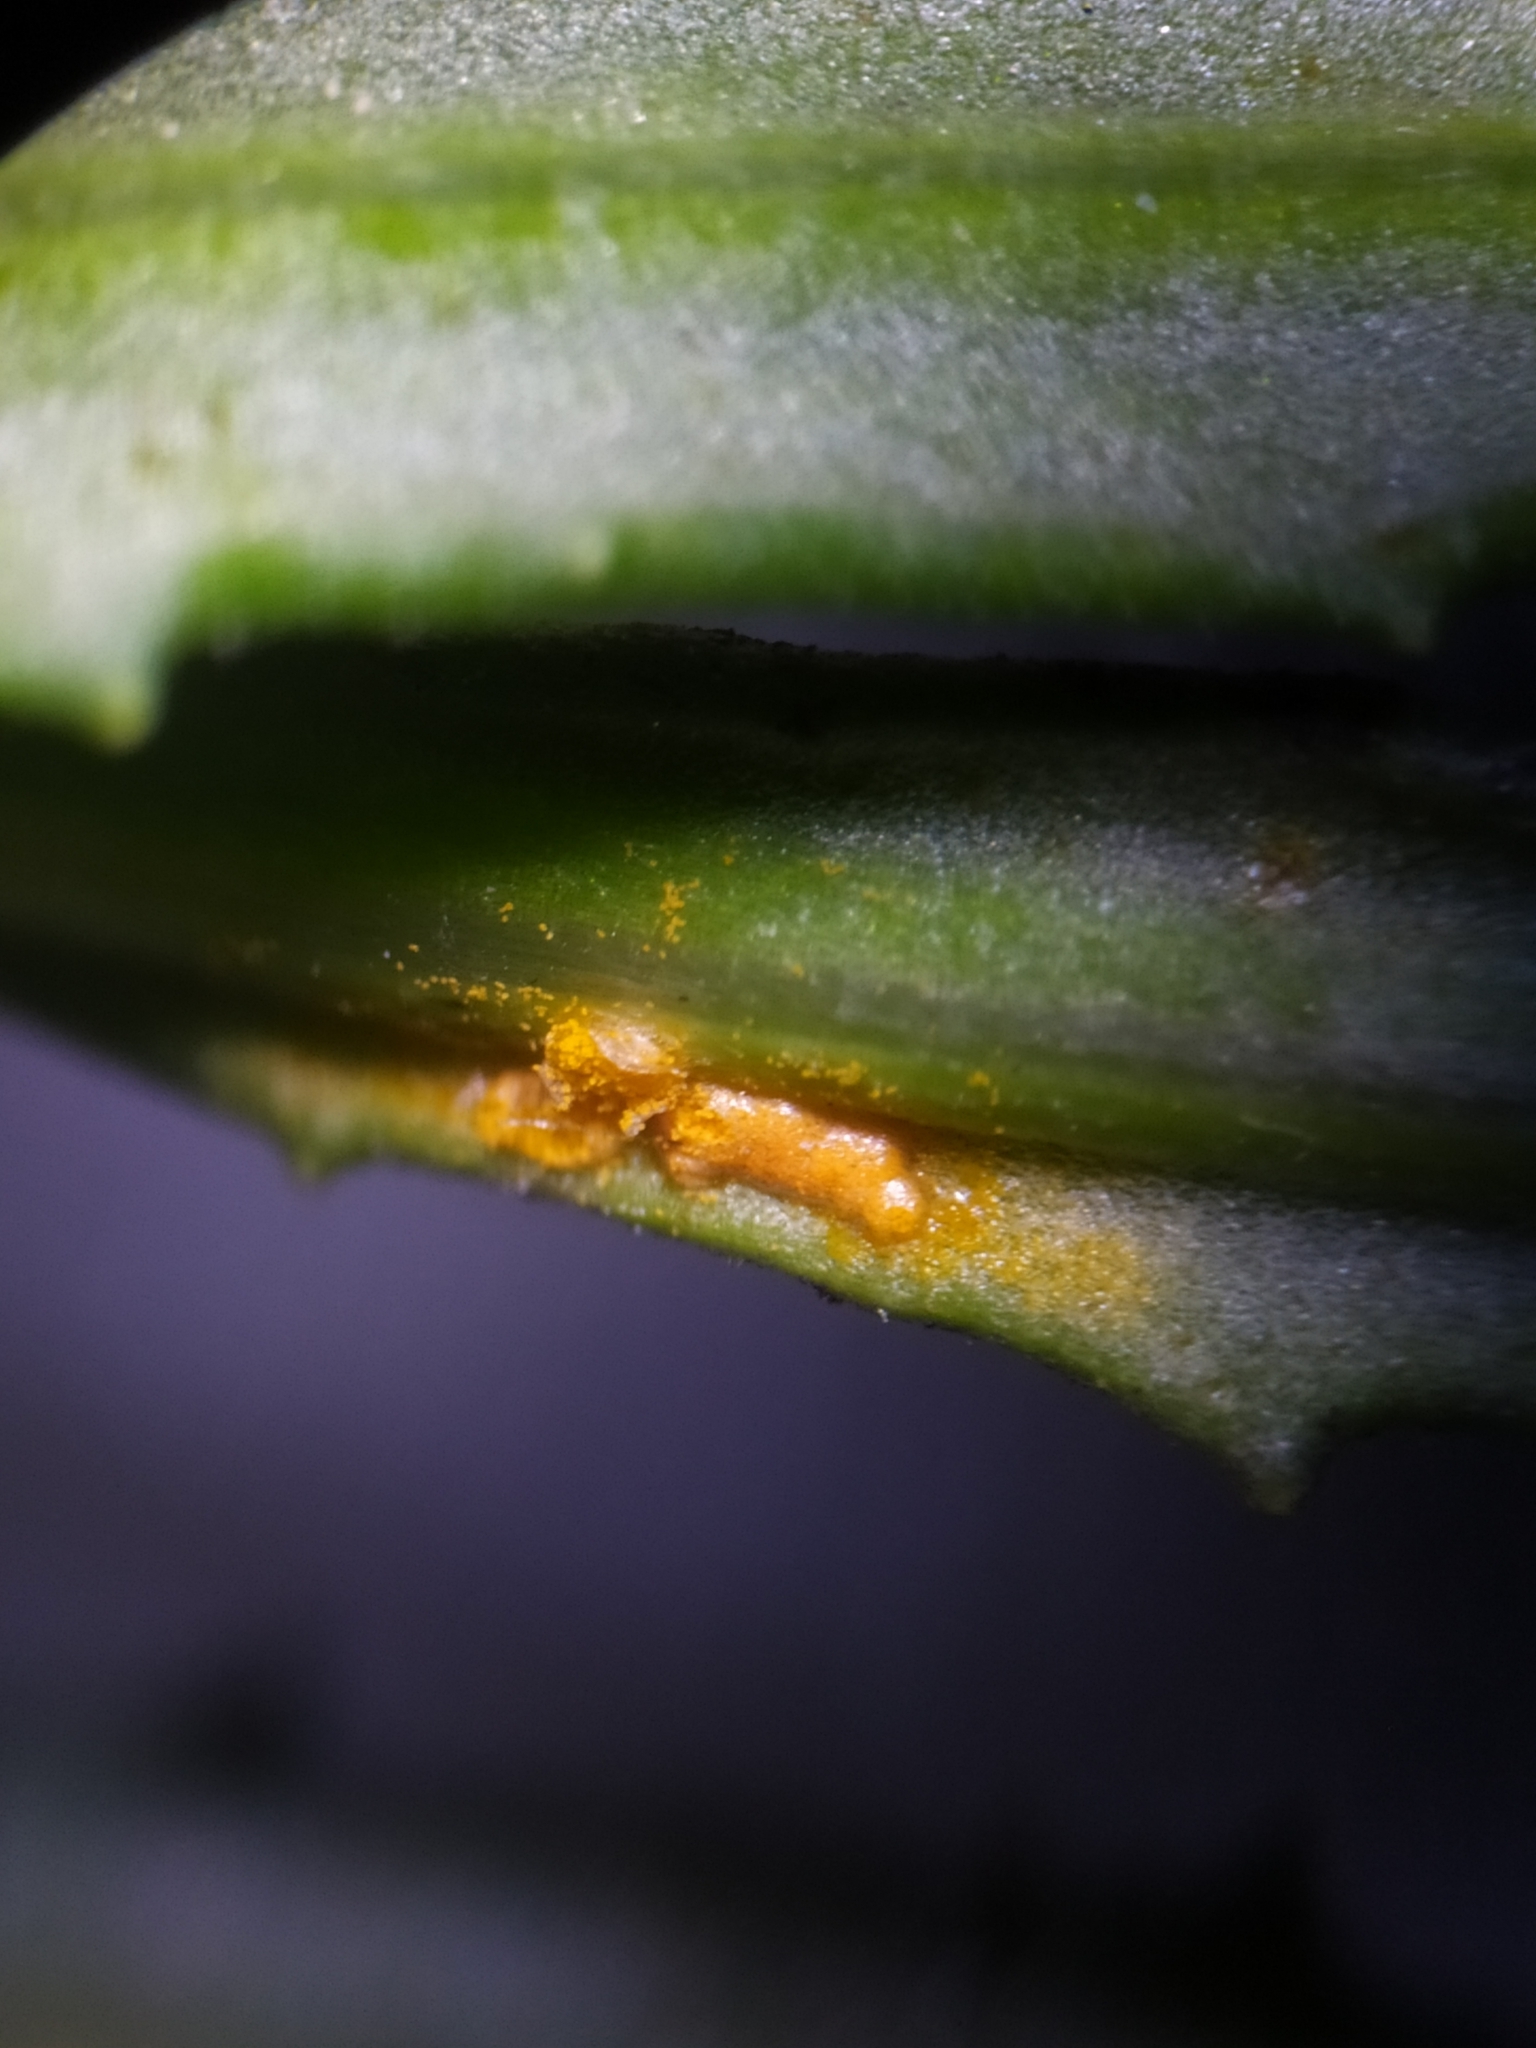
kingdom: Fungi
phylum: Basidiomycota
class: Pucciniomycetes
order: Pucciniales
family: Coleosporiaceae
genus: Coleosporium
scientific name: Coleosporium senecionis
